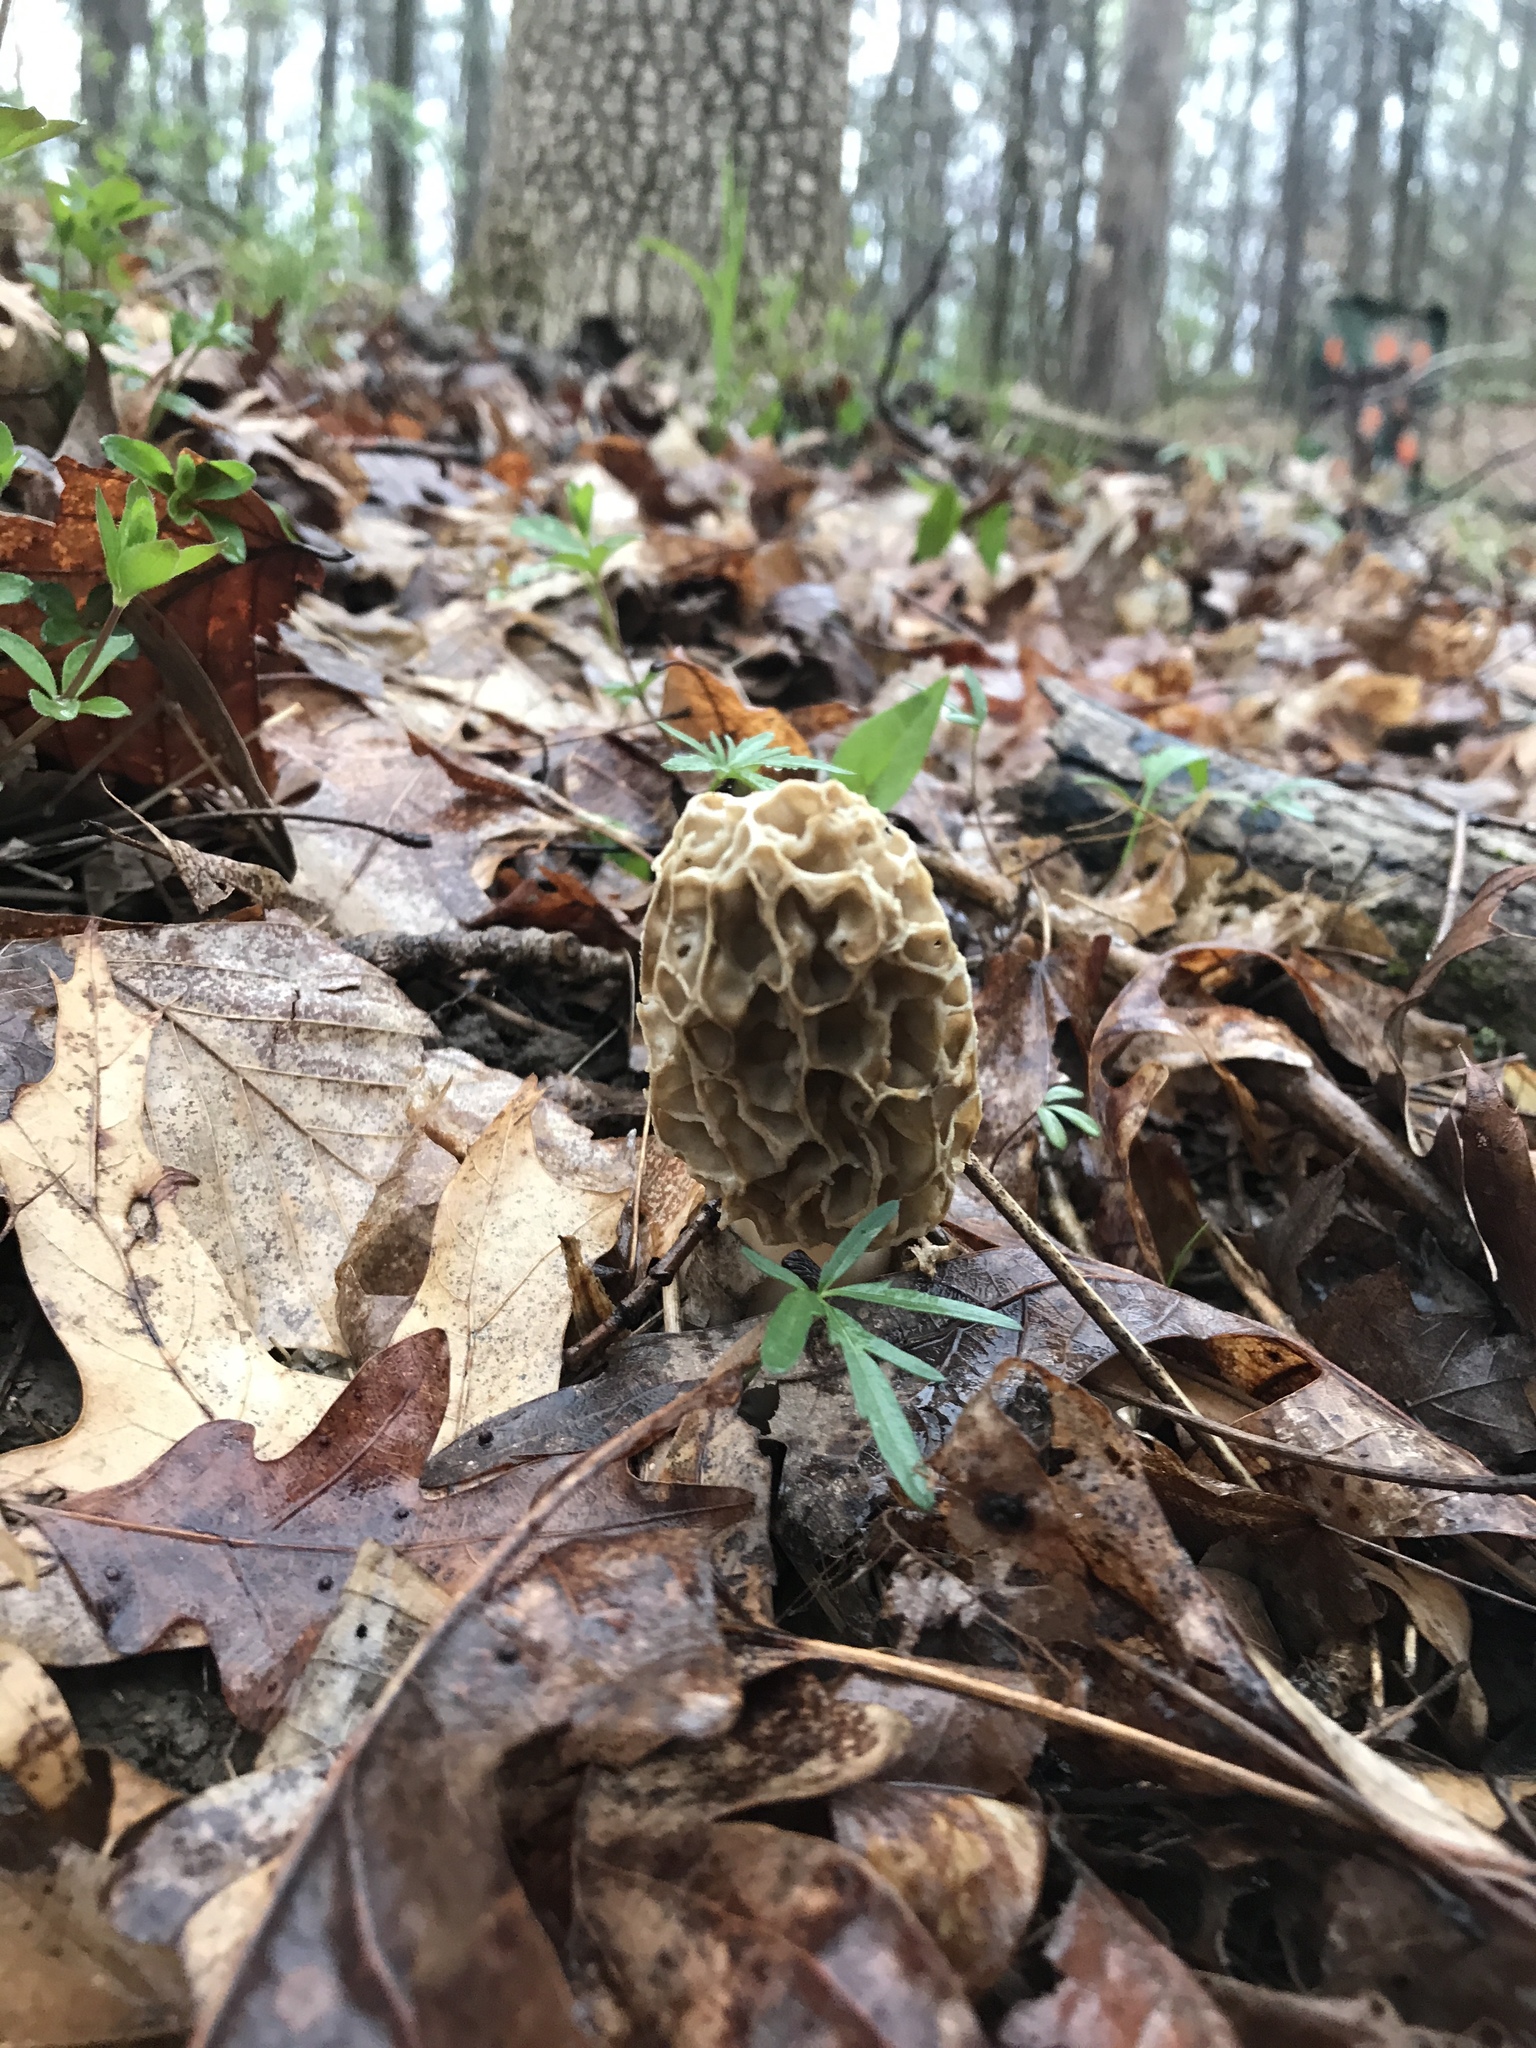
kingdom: Fungi
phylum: Ascomycota
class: Pezizomycetes
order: Pezizales
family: Morchellaceae
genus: Morchella
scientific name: Morchella americana
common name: White morel
